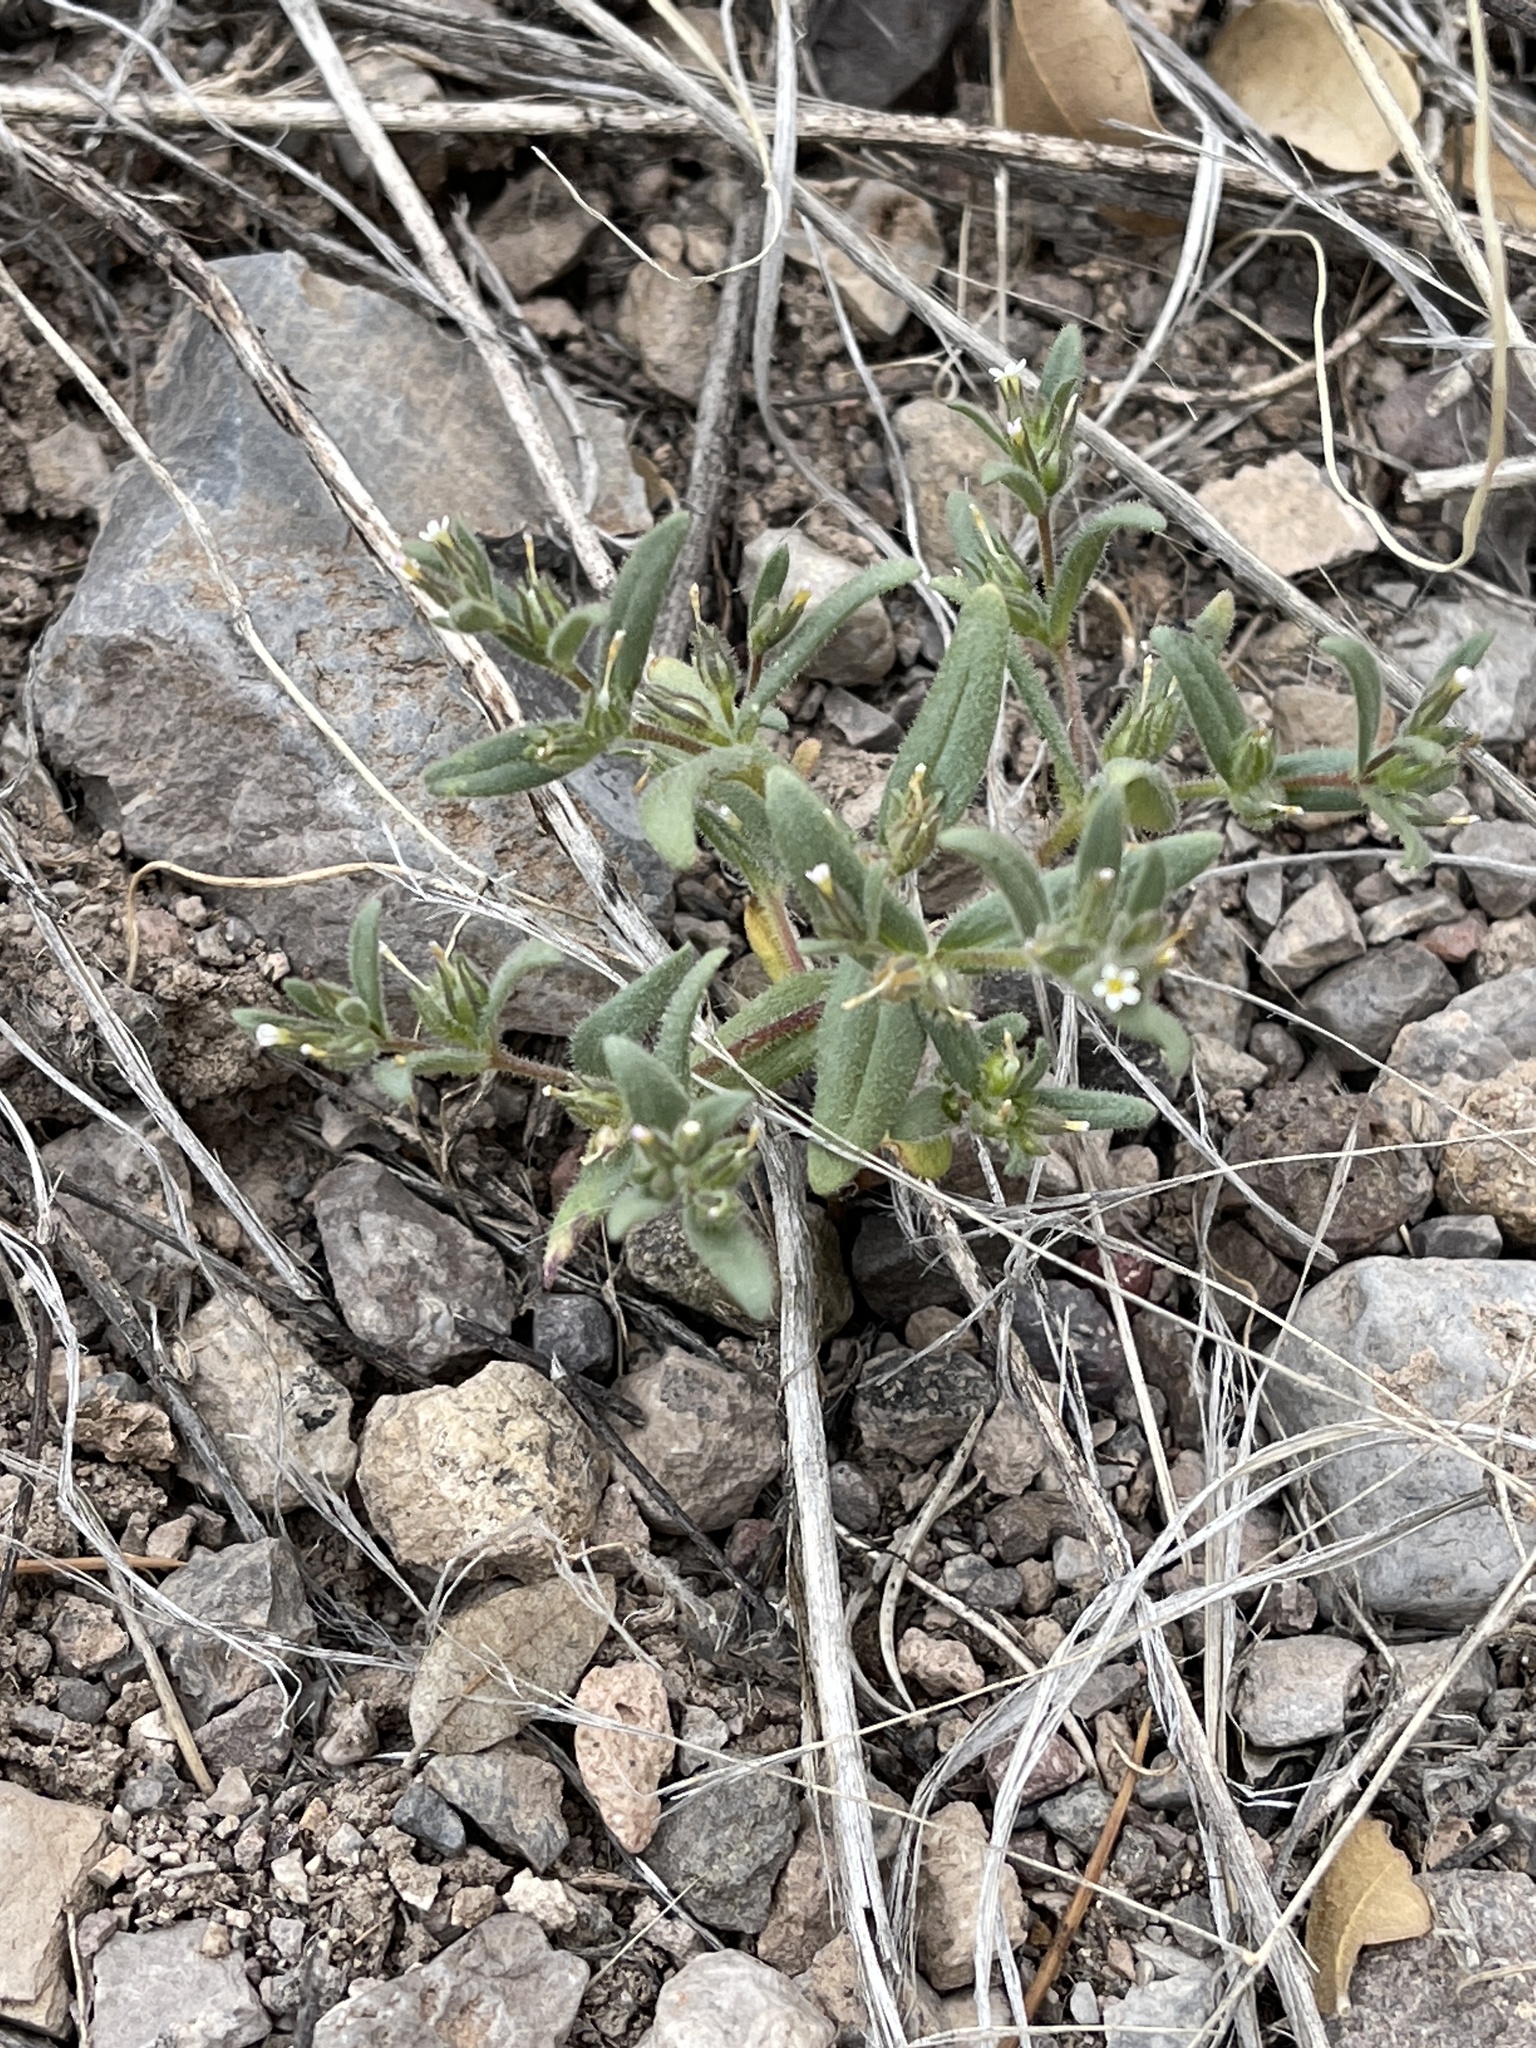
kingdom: Plantae
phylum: Tracheophyta
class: Magnoliopsida
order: Ericales
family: Polemoniaceae
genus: Phlox
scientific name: Phlox gracilis
